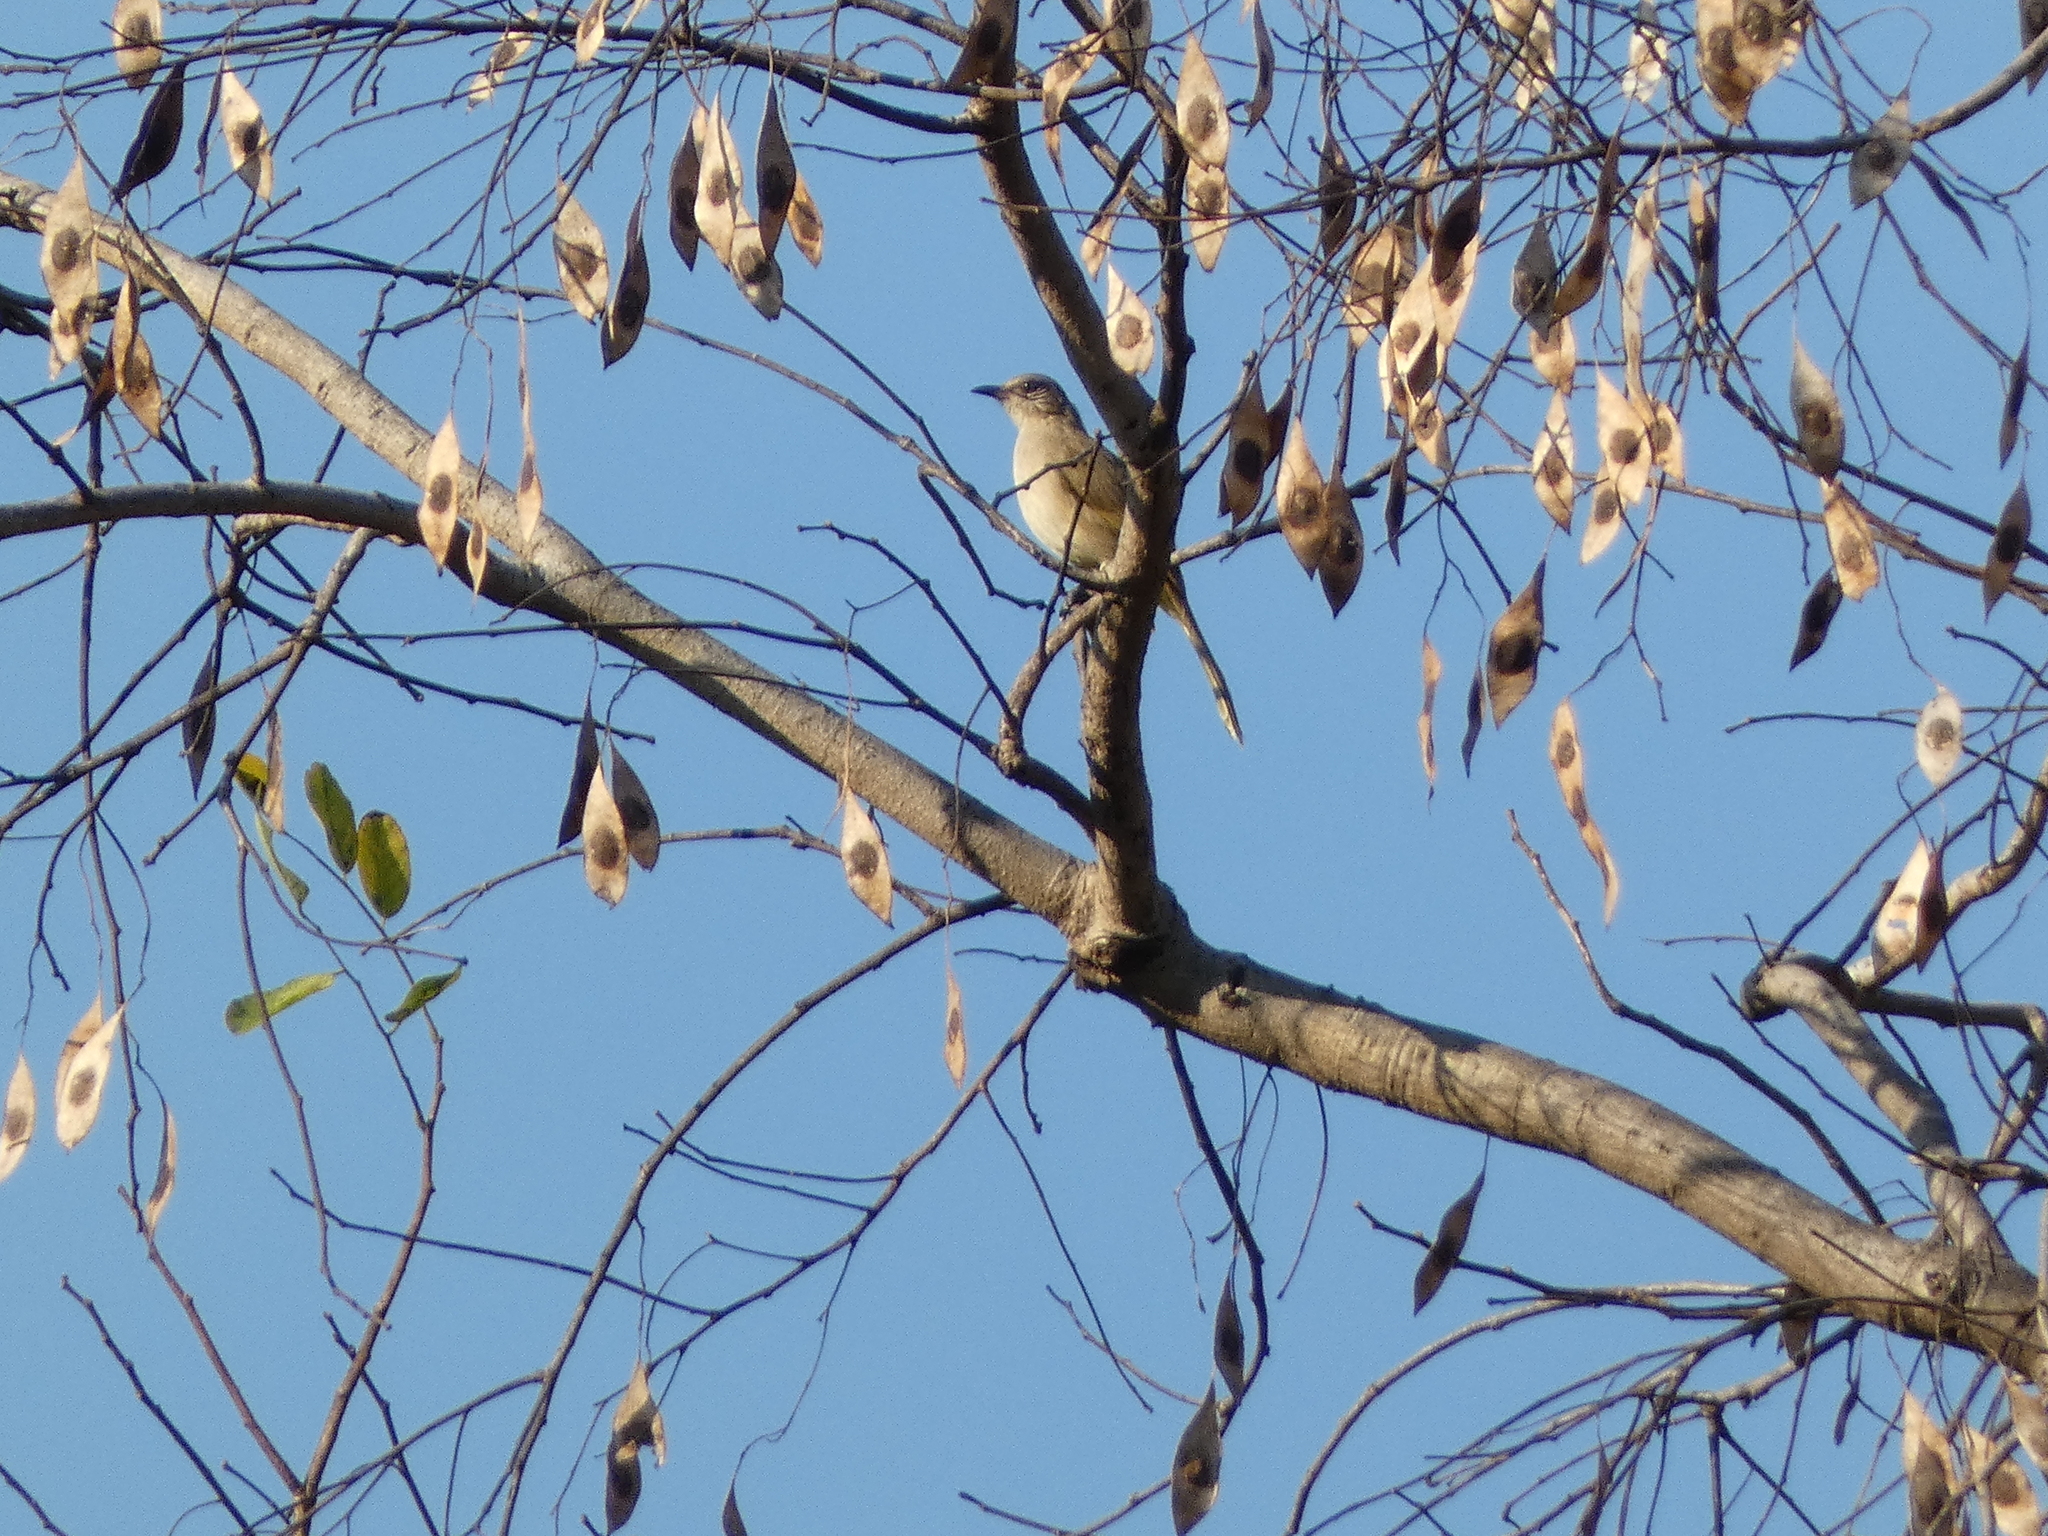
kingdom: Animalia
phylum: Chordata
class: Aves
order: Passeriformes
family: Pycnonotidae
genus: Pycnonotus
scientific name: Pycnonotus blanfordi
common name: Streak-eared bulbul
